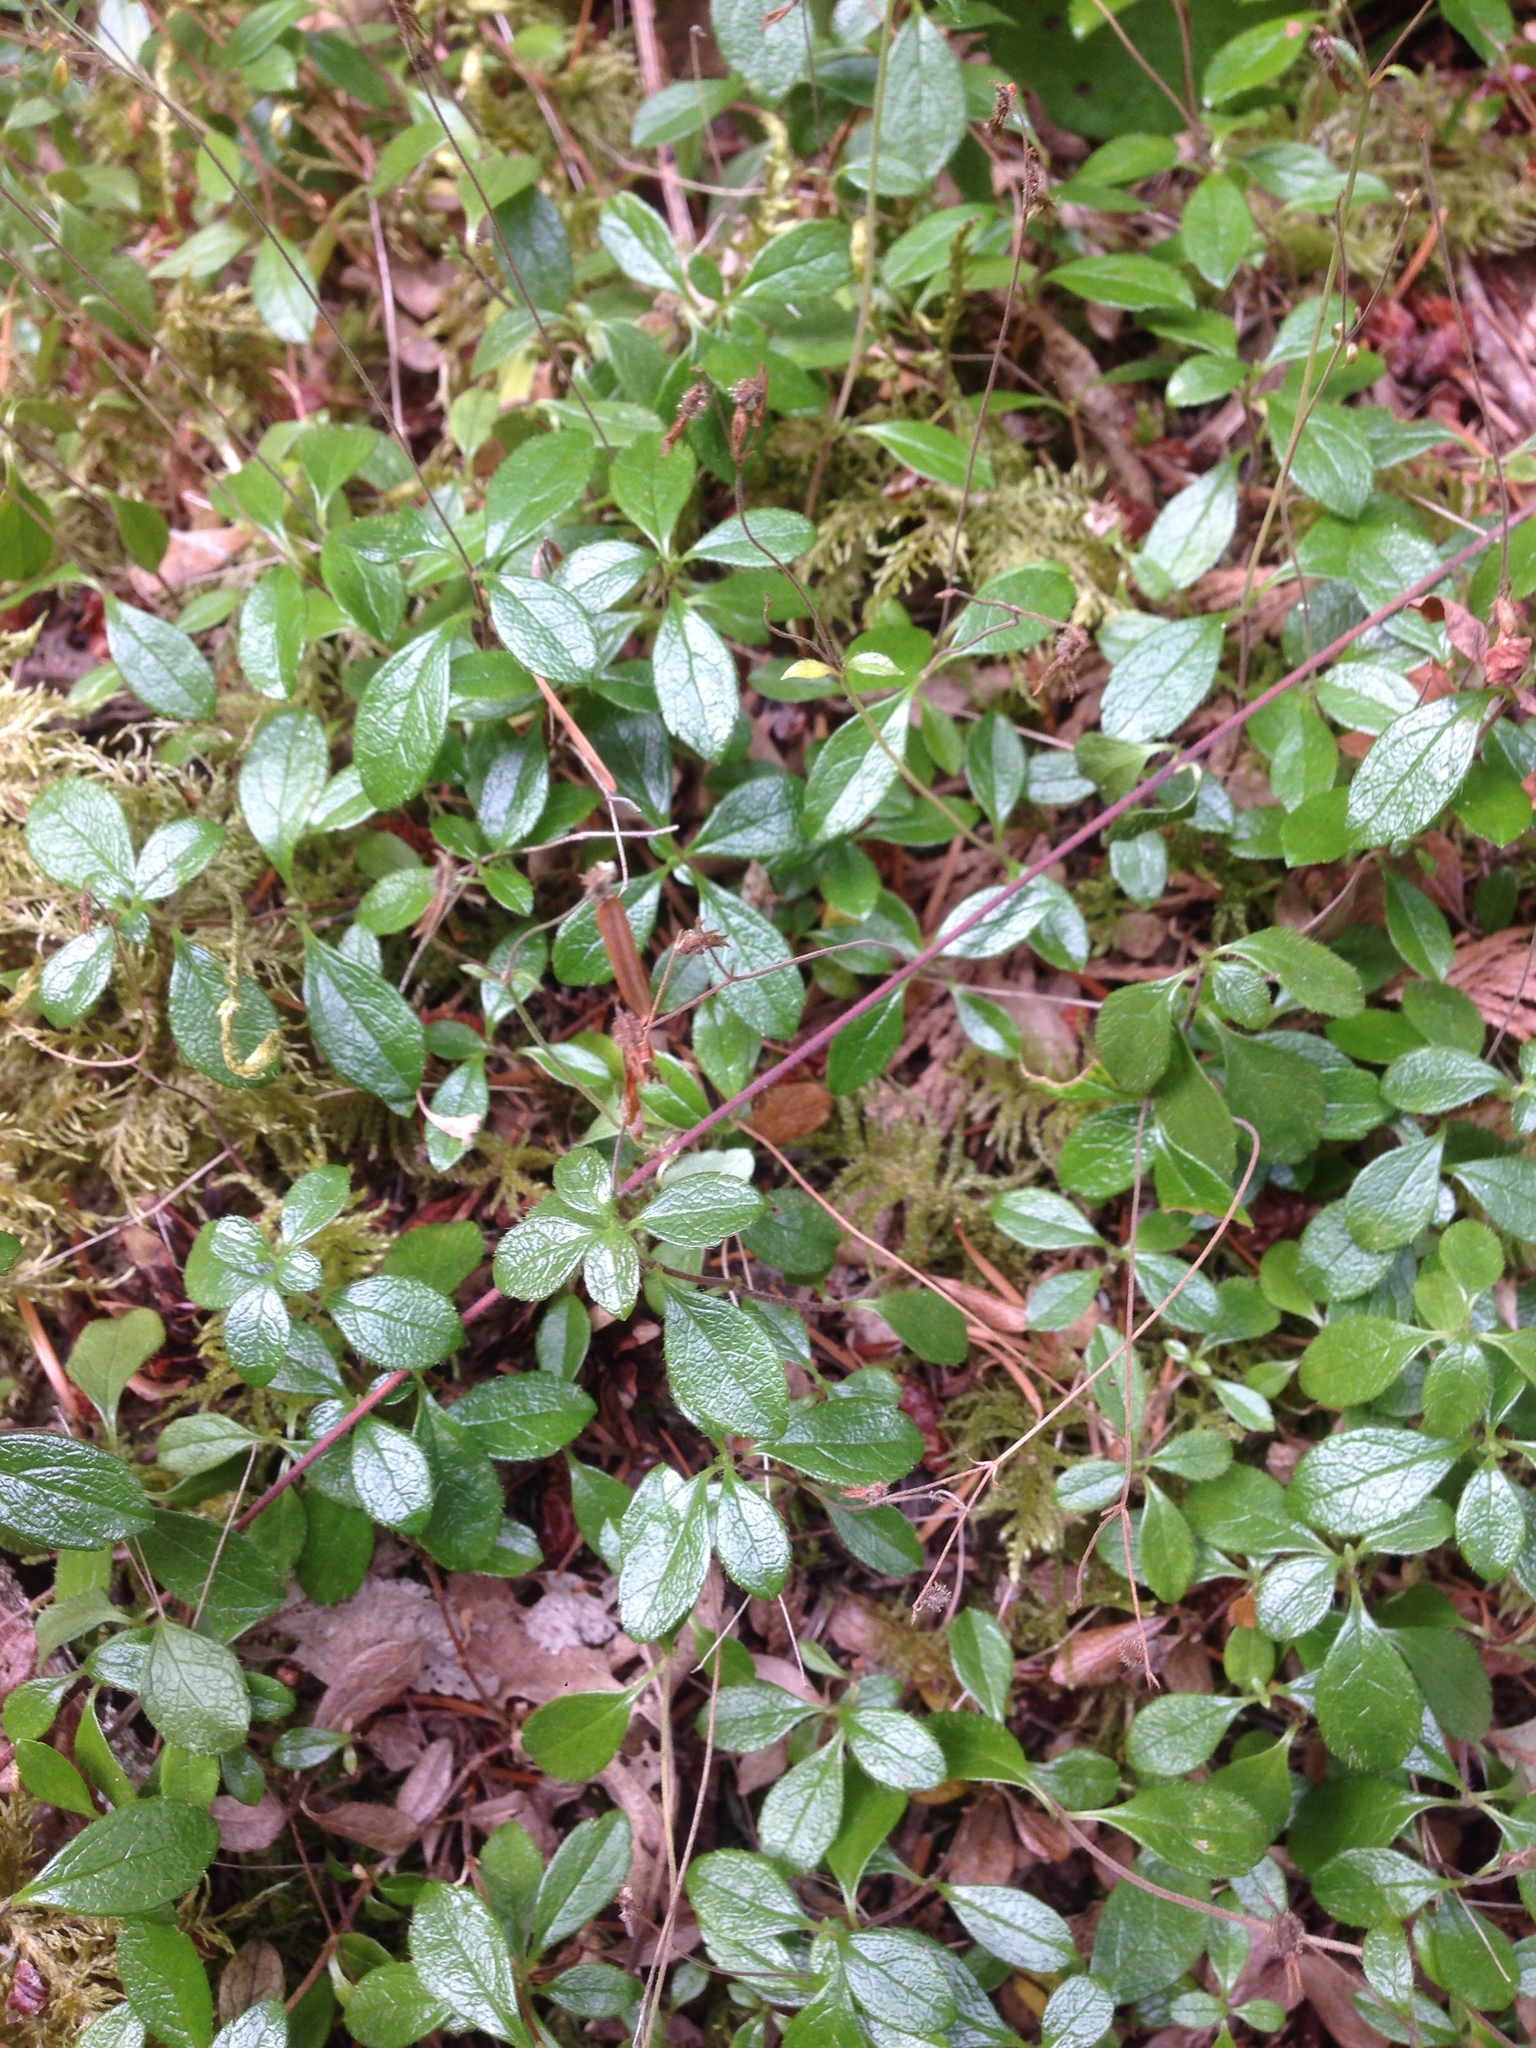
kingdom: Plantae
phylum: Tracheophyta
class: Magnoliopsida
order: Dipsacales
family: Caprifoliaceae
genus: Linnaea
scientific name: Linnaea borealis
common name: Twinflower
